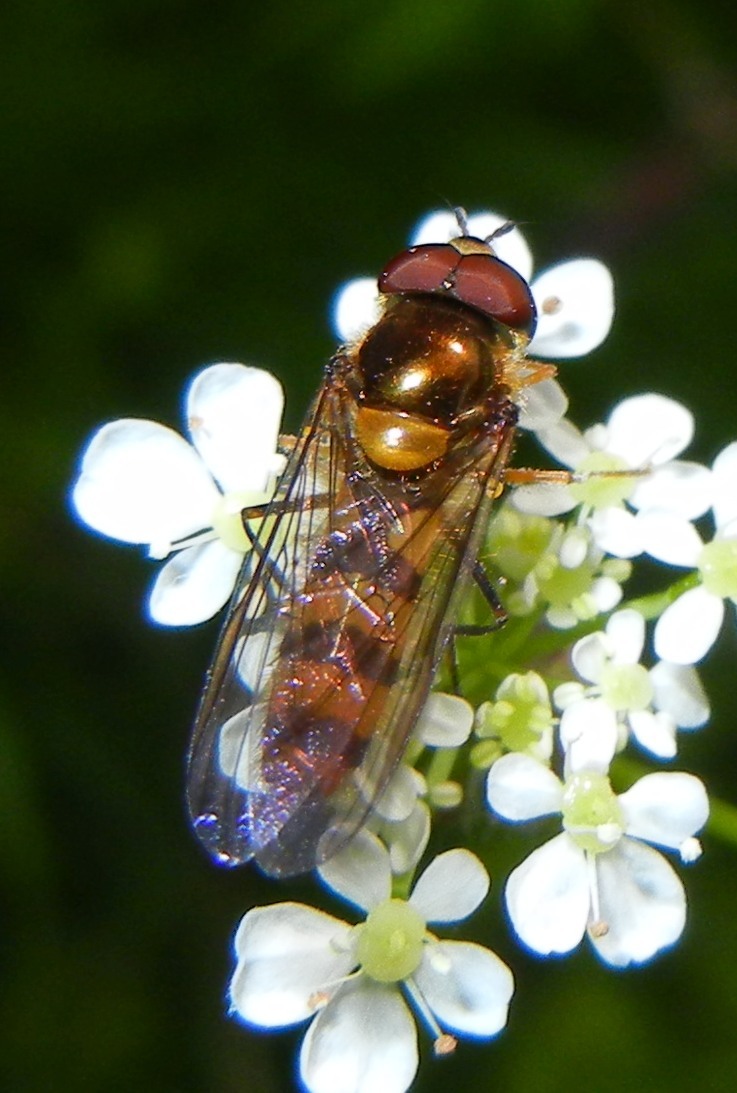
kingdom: Animalia
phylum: Arthropoda
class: Insecta
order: Diptera
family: Syrphidae
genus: Meliscaeva
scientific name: Meliscaeva cinctella
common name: American thintail fly
